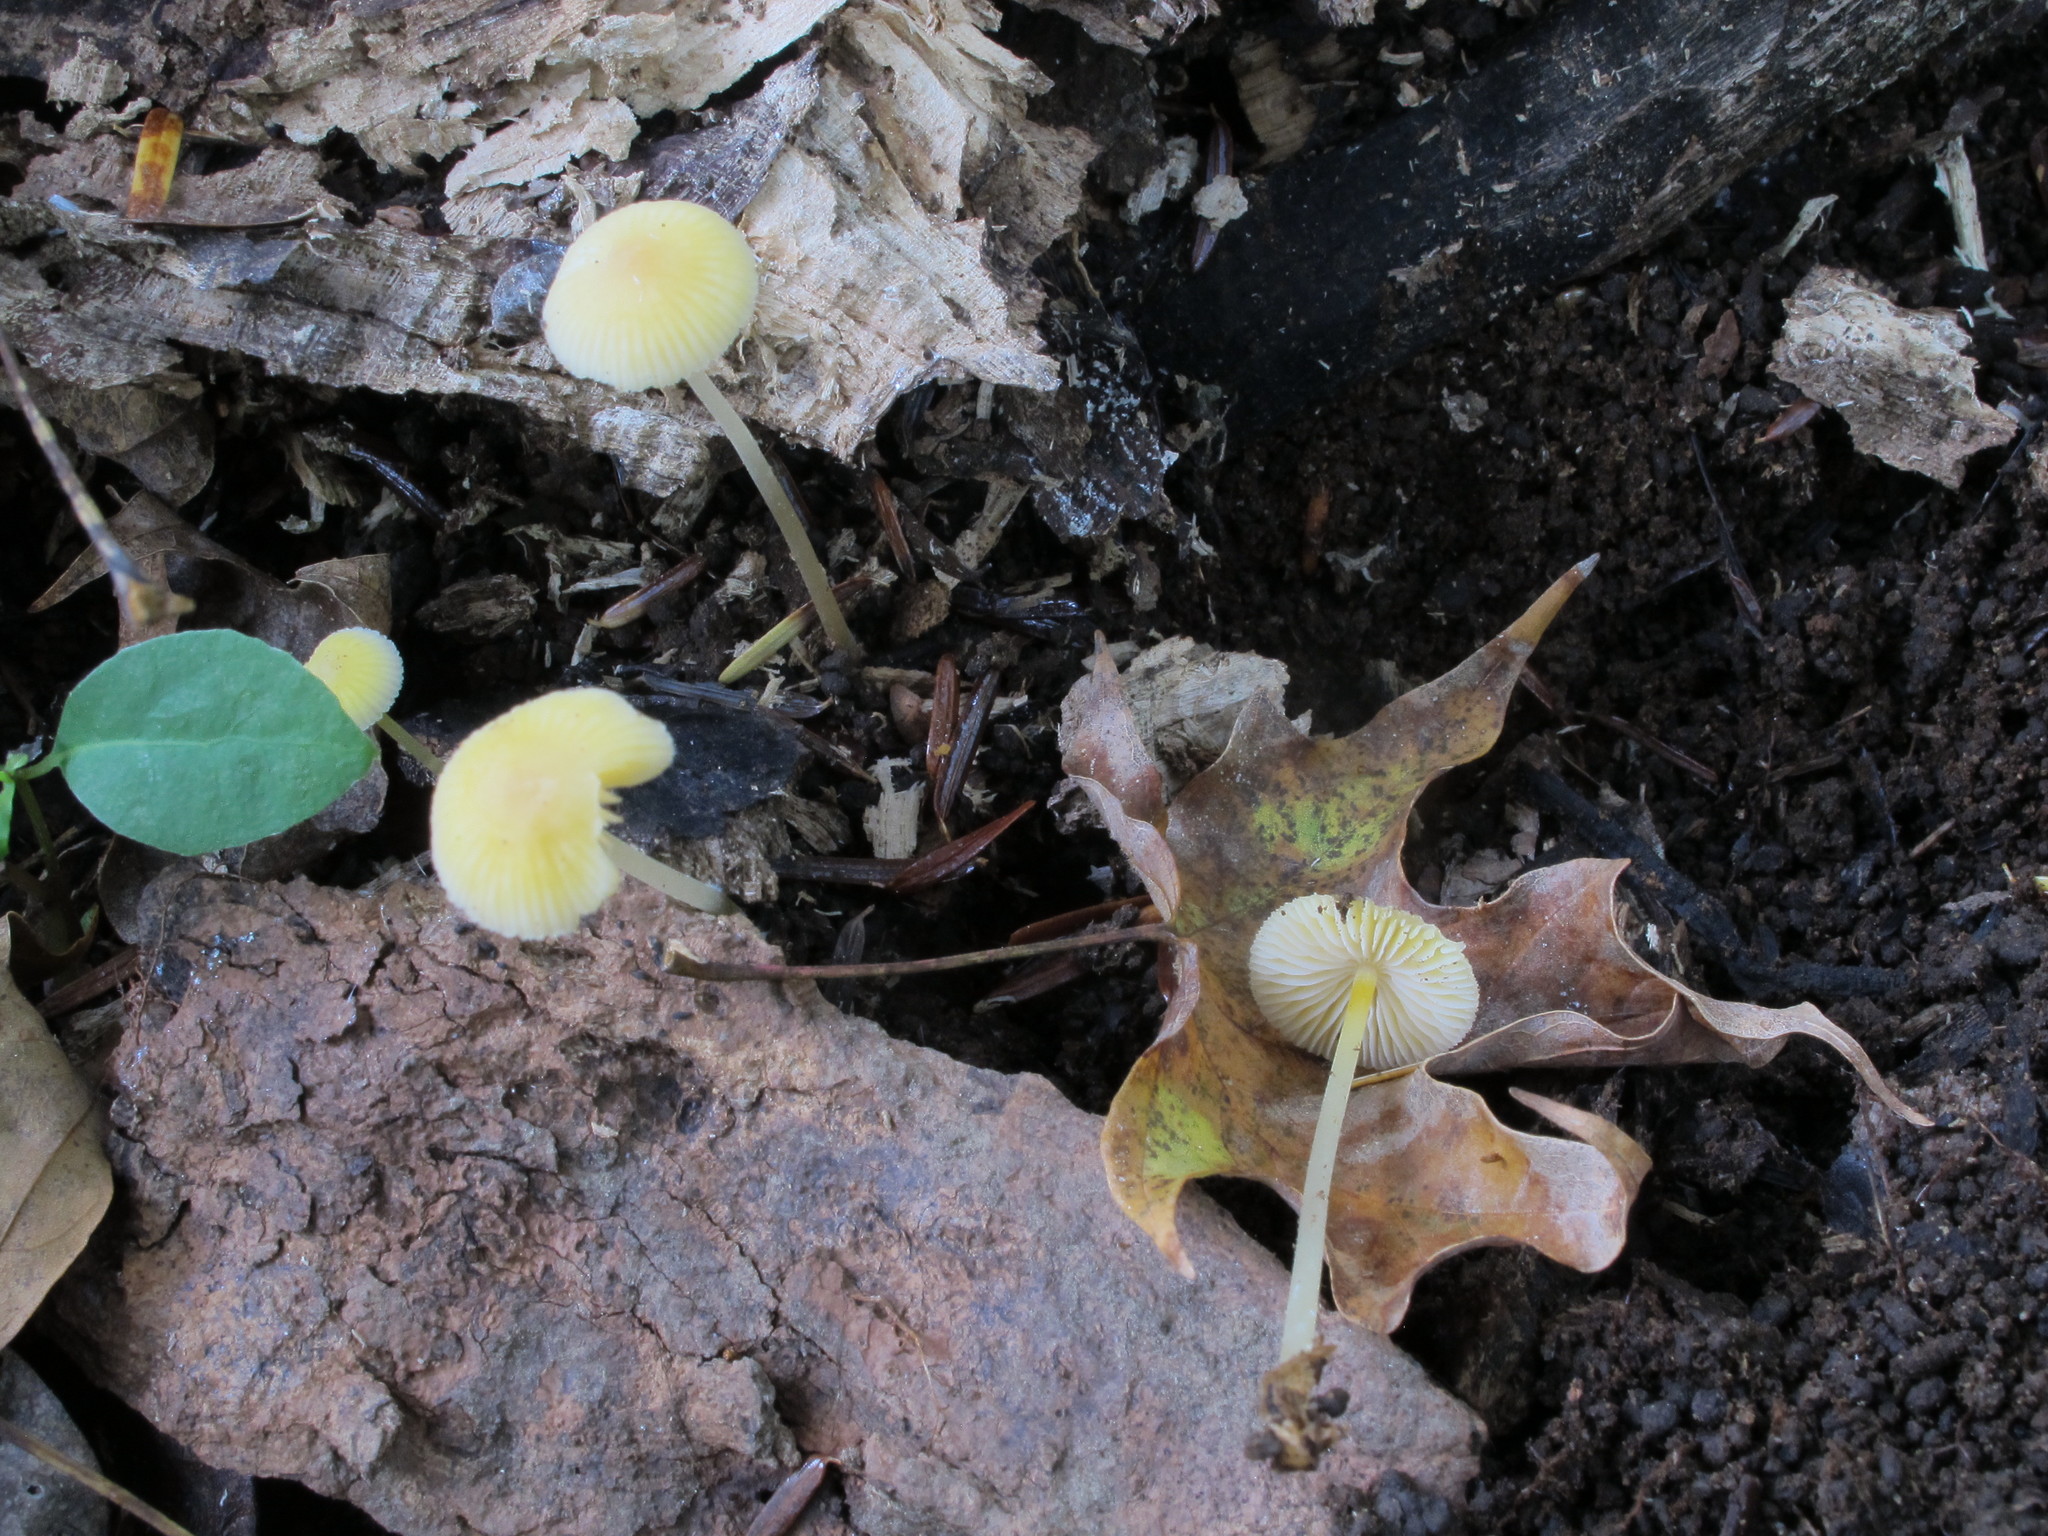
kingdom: Fungi
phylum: Basidiomycota
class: Agaricomycetes
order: Agaricales
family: Mycenaceae
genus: Mycena
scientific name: Mycena crocea
